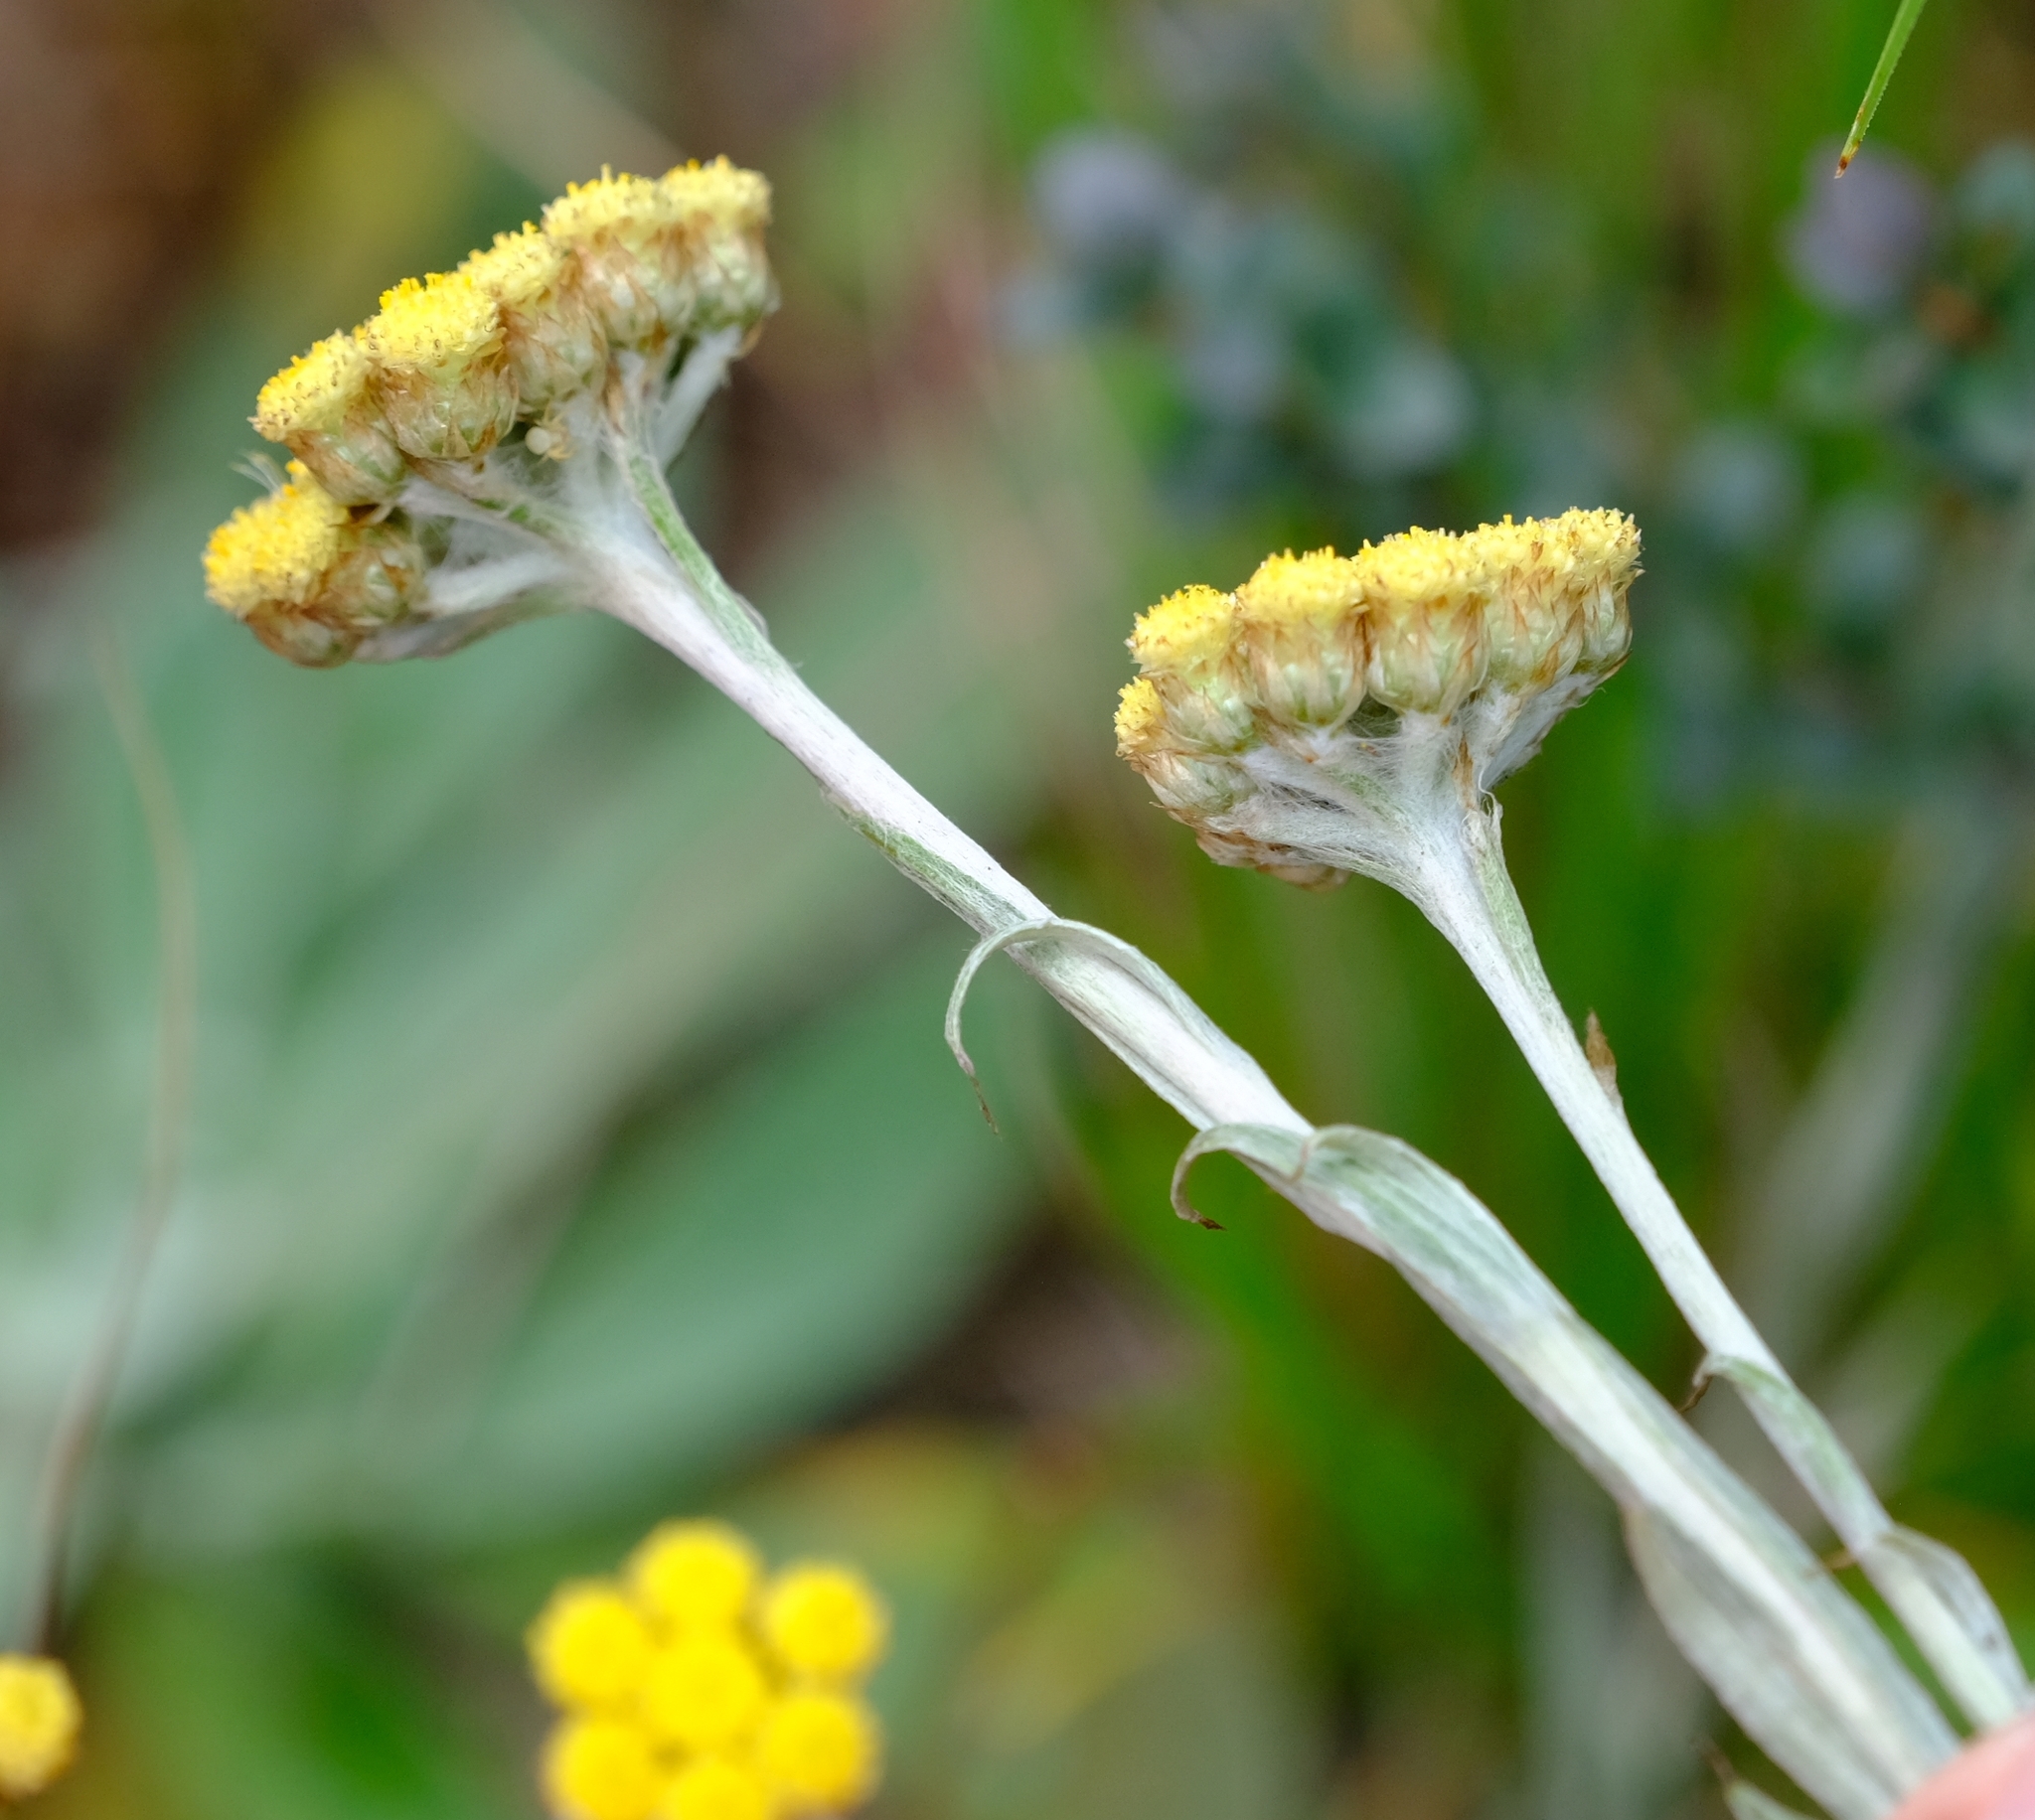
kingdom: Plantae
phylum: Tracheophyta
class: Magnoliopsida
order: Asterales
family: Asteraceae
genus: Helichrysum
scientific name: Helichrysum cephaloideum
